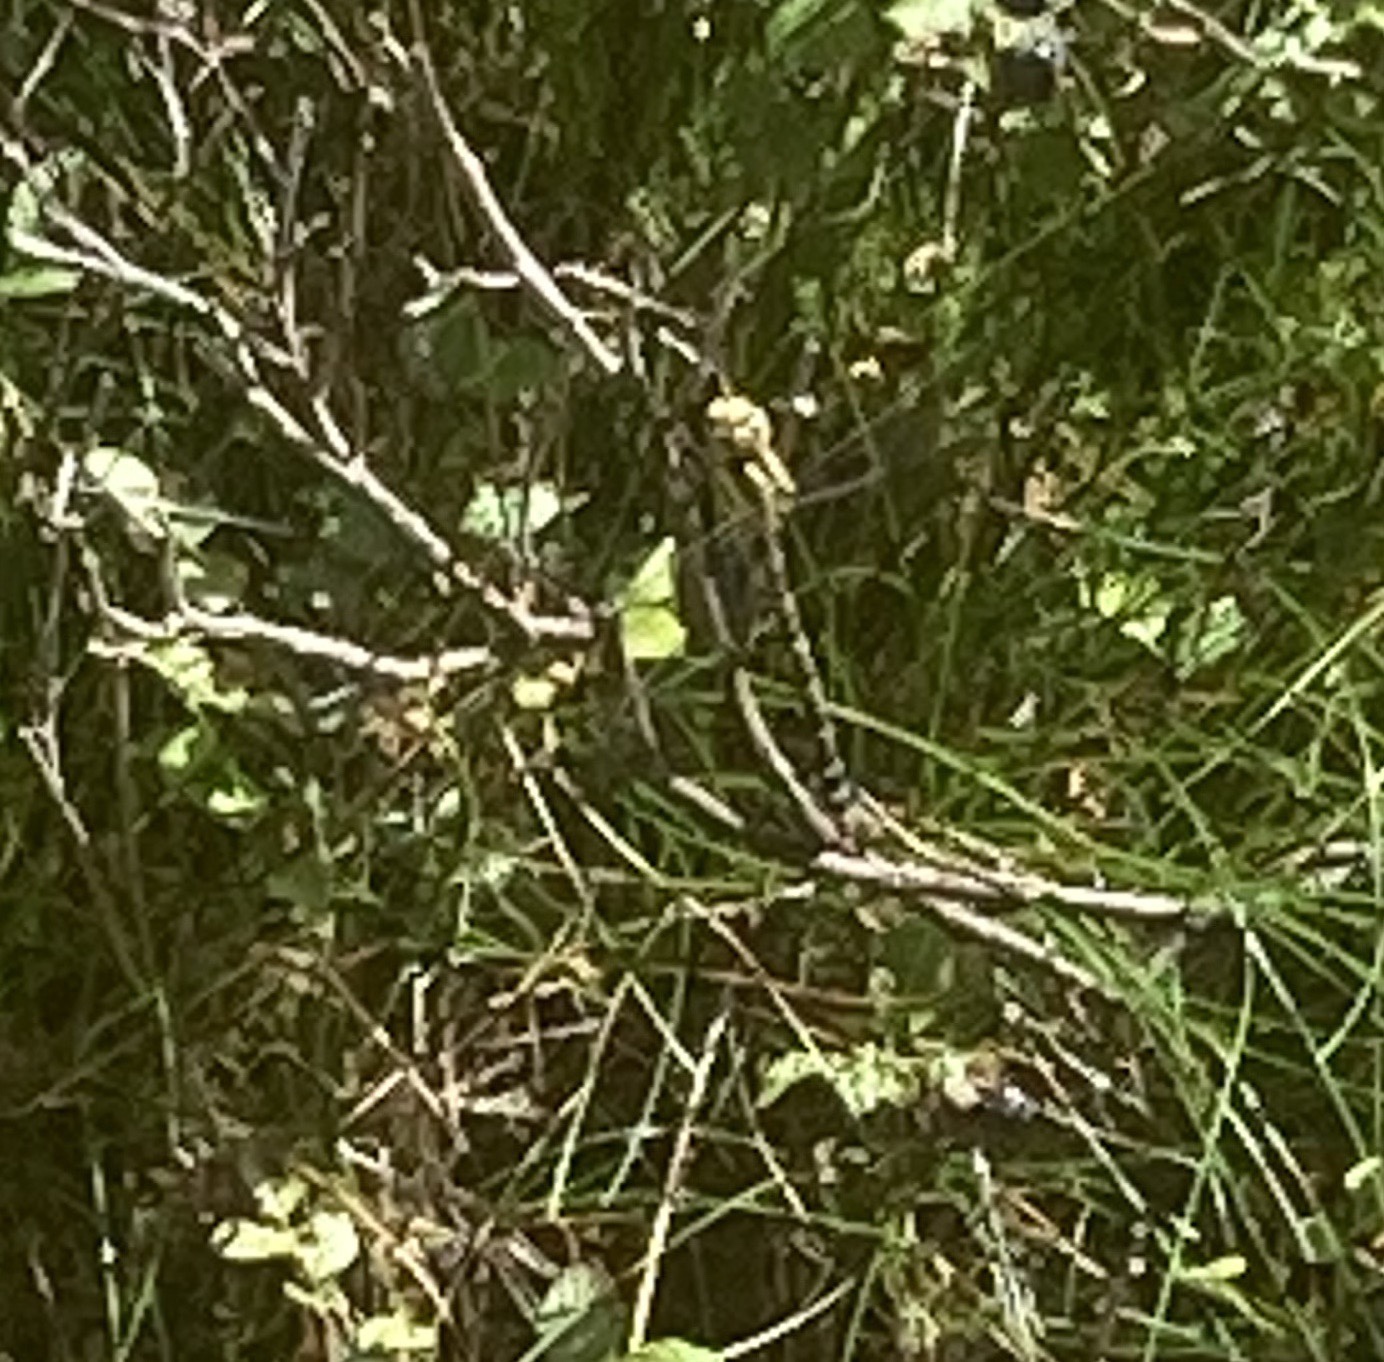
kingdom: Animalia
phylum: Arthropoda
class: Insecta
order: Odonata
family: Aeshnidae
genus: Aeshna
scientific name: Aeshna cyanea
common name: Southern hawker
